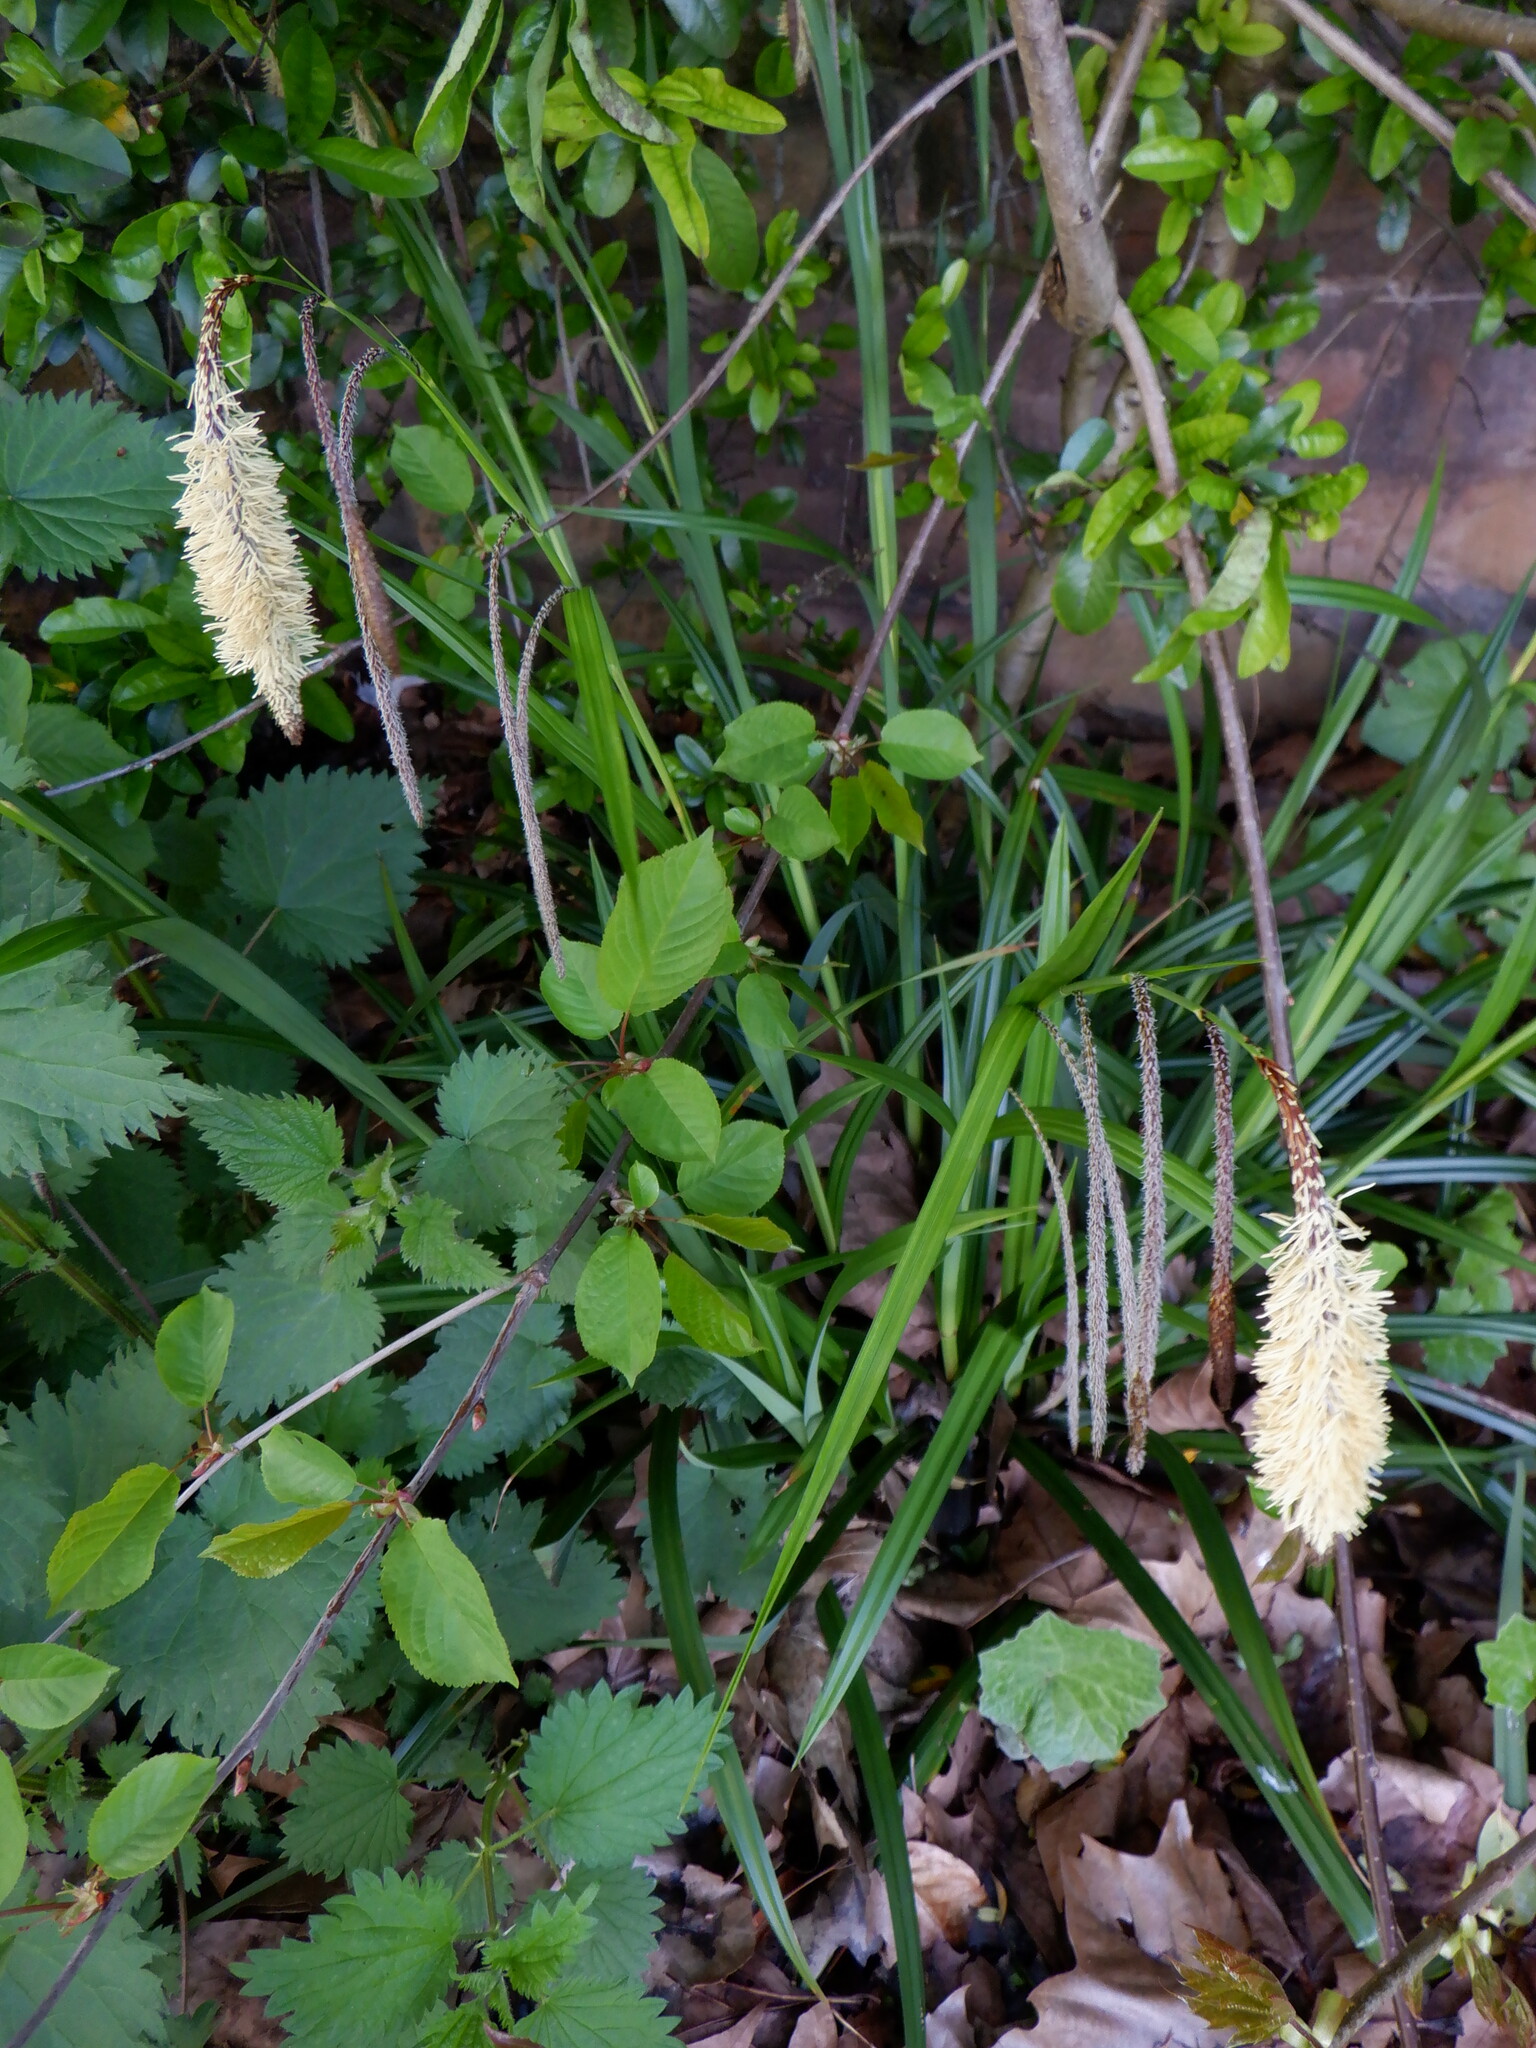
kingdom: Plantae
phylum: Tracheophyta
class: Liliopsida
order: Poales
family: Cyperaceae
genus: Carex
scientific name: Carex pendula
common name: Pendulous sedge
